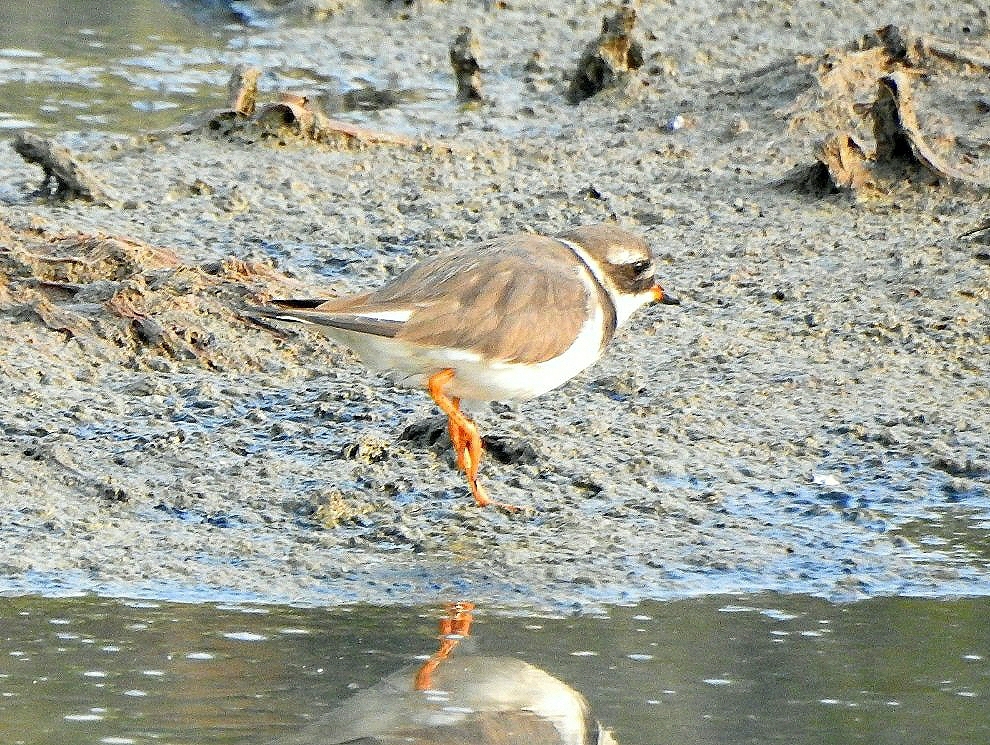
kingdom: Animalia
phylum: Chordata
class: Aves
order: Charadriiformes
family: Charadriidae
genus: Charadrius
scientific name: Charadrius hiaticula
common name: Common ringed plover
